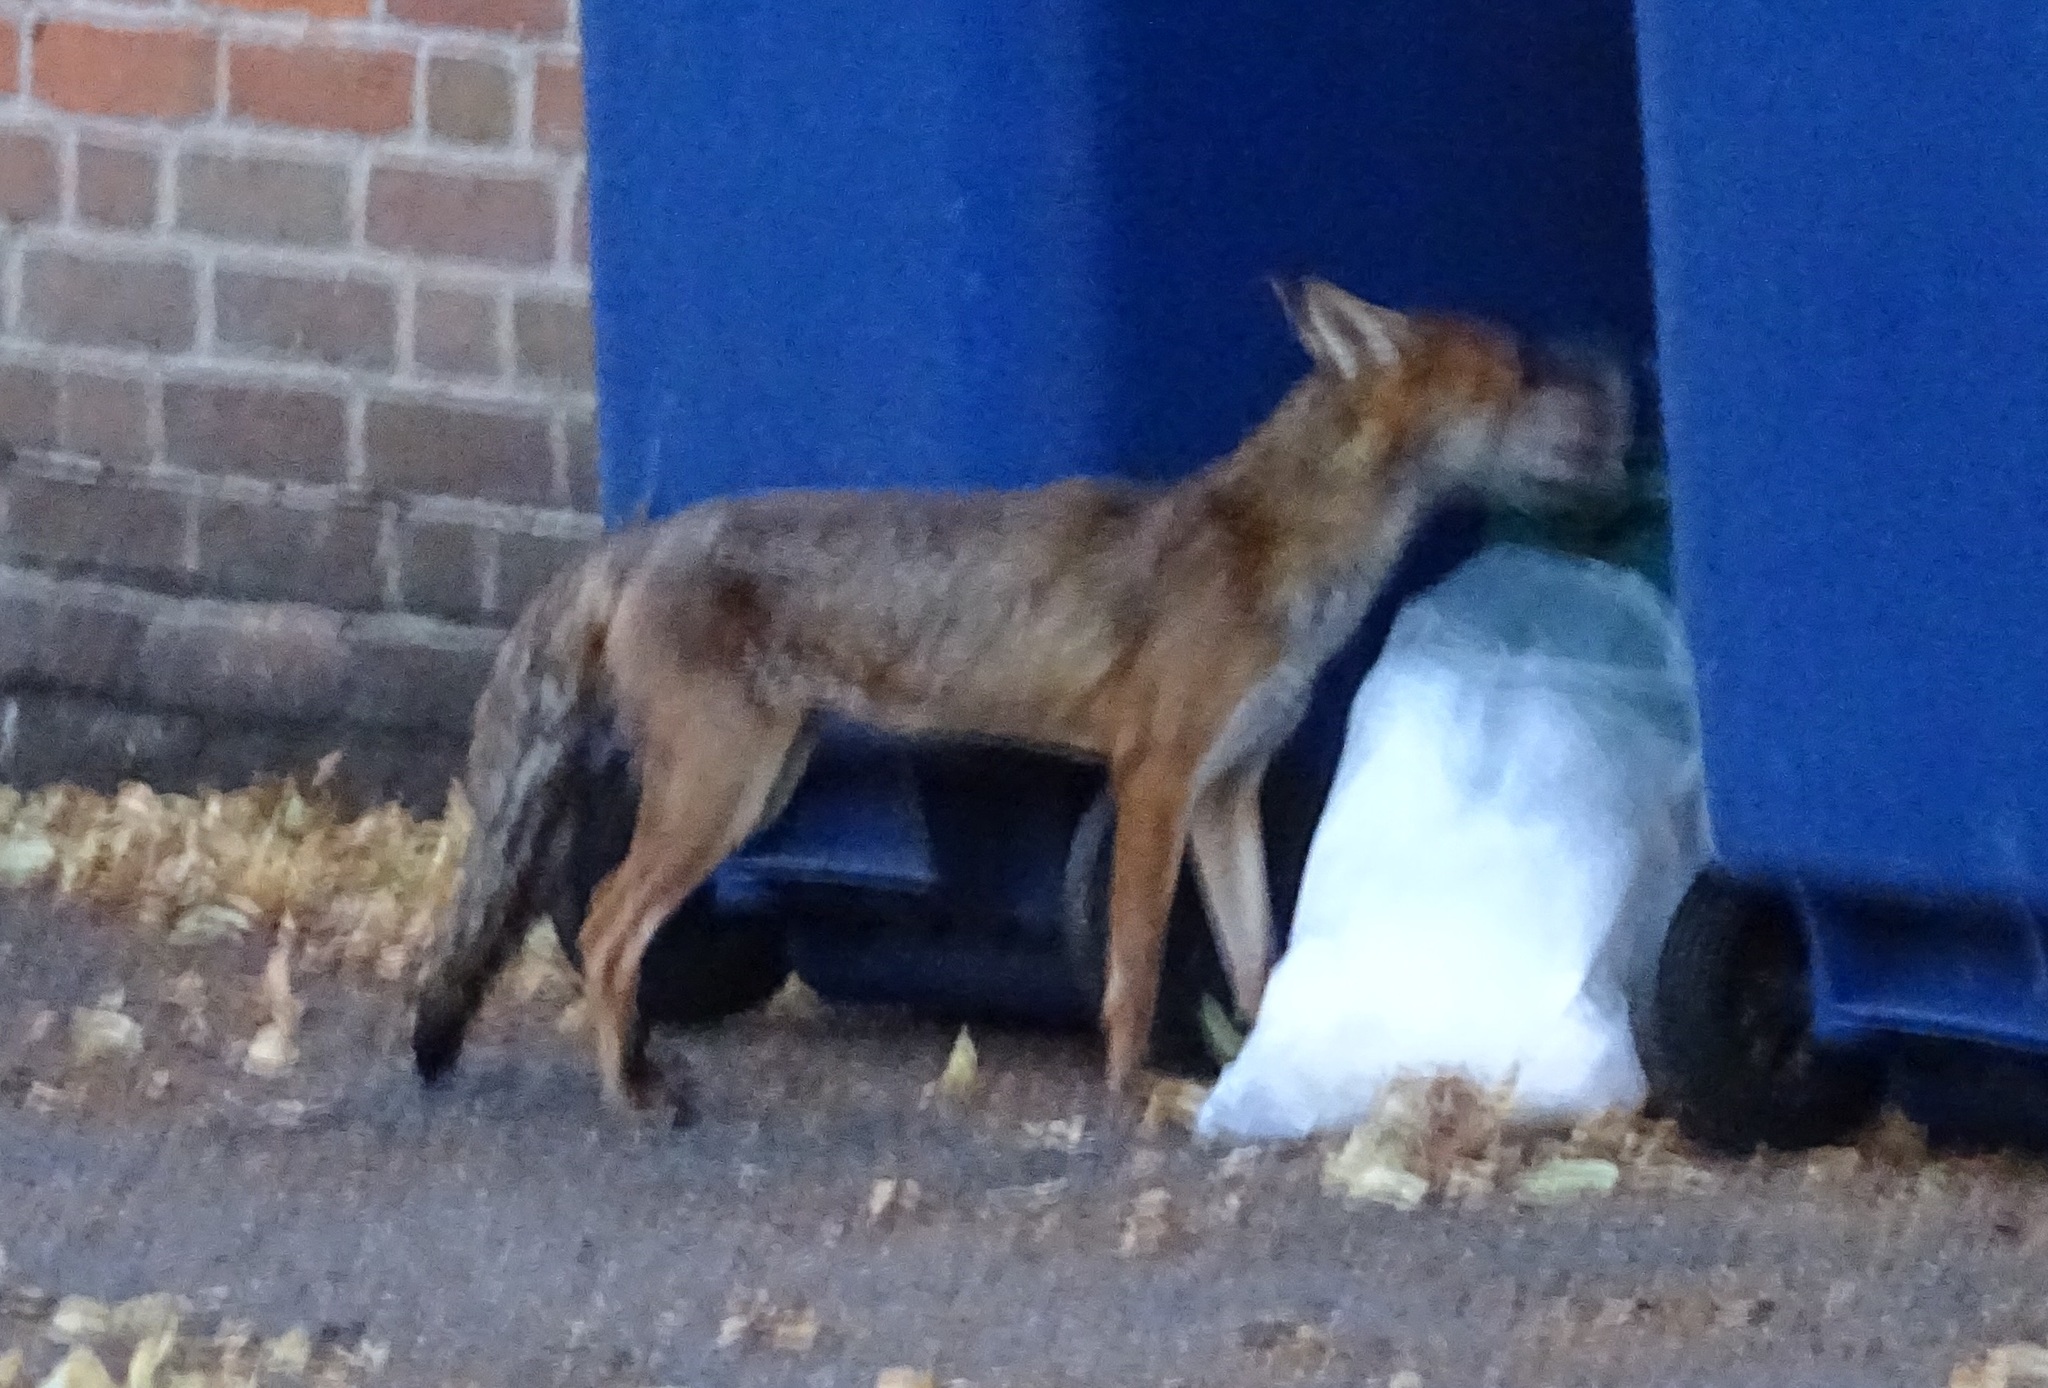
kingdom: Animalia
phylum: Chordata
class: Mammalia
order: Carnivora
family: Canidae
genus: Vulpes
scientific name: Vulpes vulpes
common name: Red fox
